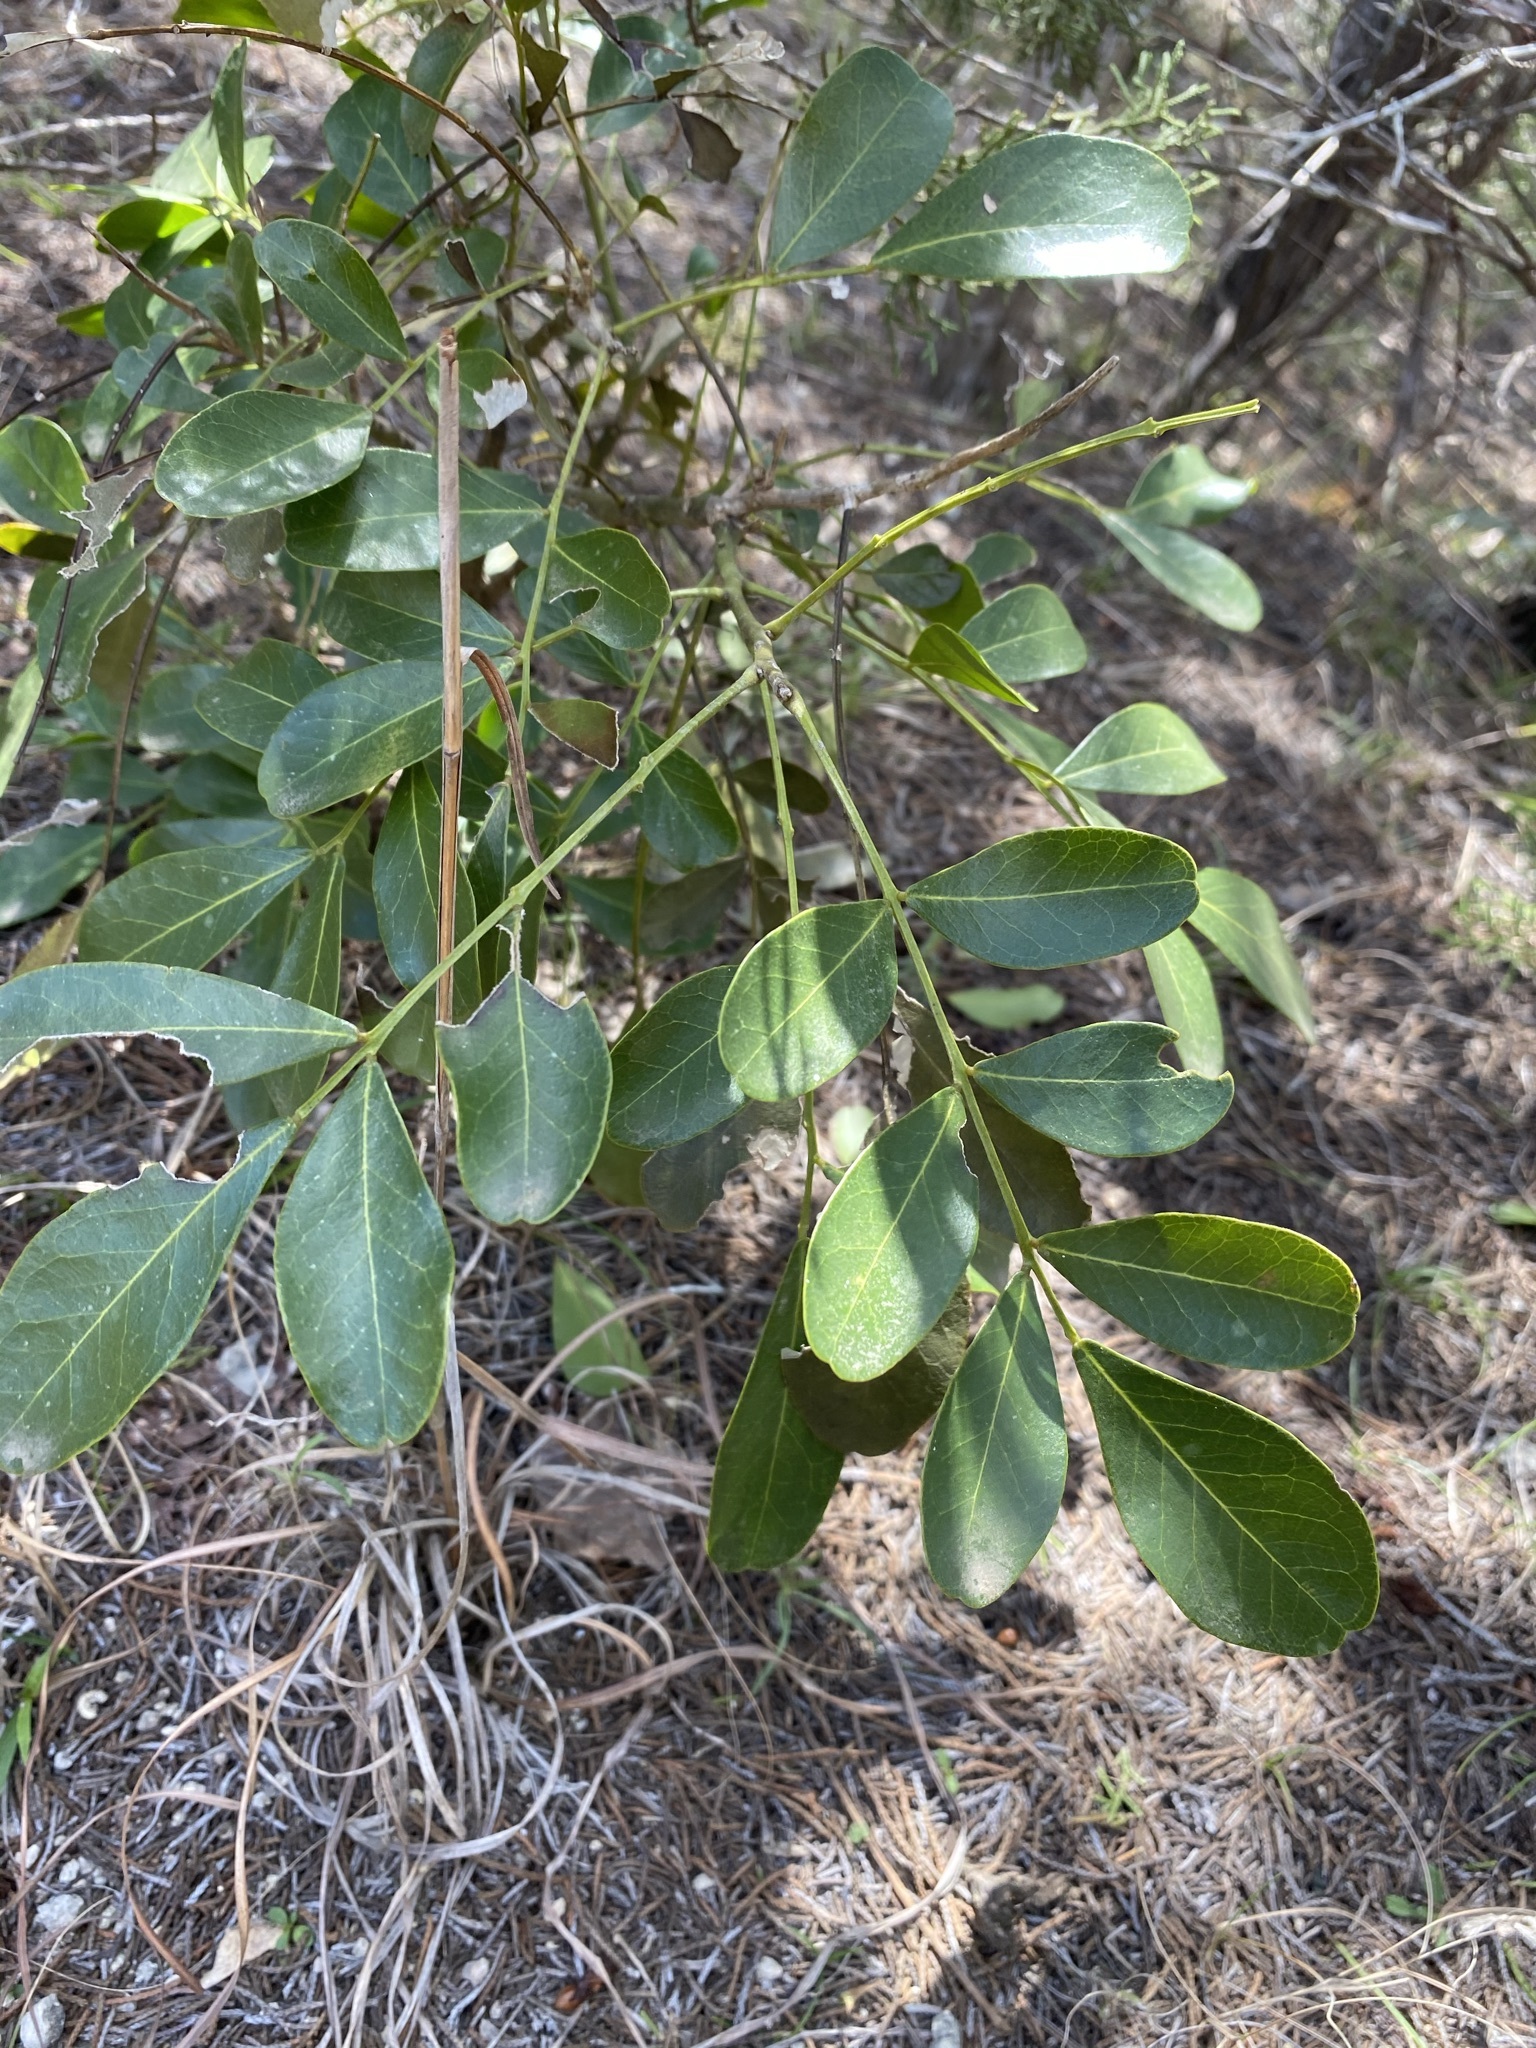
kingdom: Plantae
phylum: Tracheophyta
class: Magnoliopsida
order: Fabales
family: Fabaceae
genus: Dermatophyllum
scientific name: Dermatophyllum secundiflorum
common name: Texas-mountain-laurel
